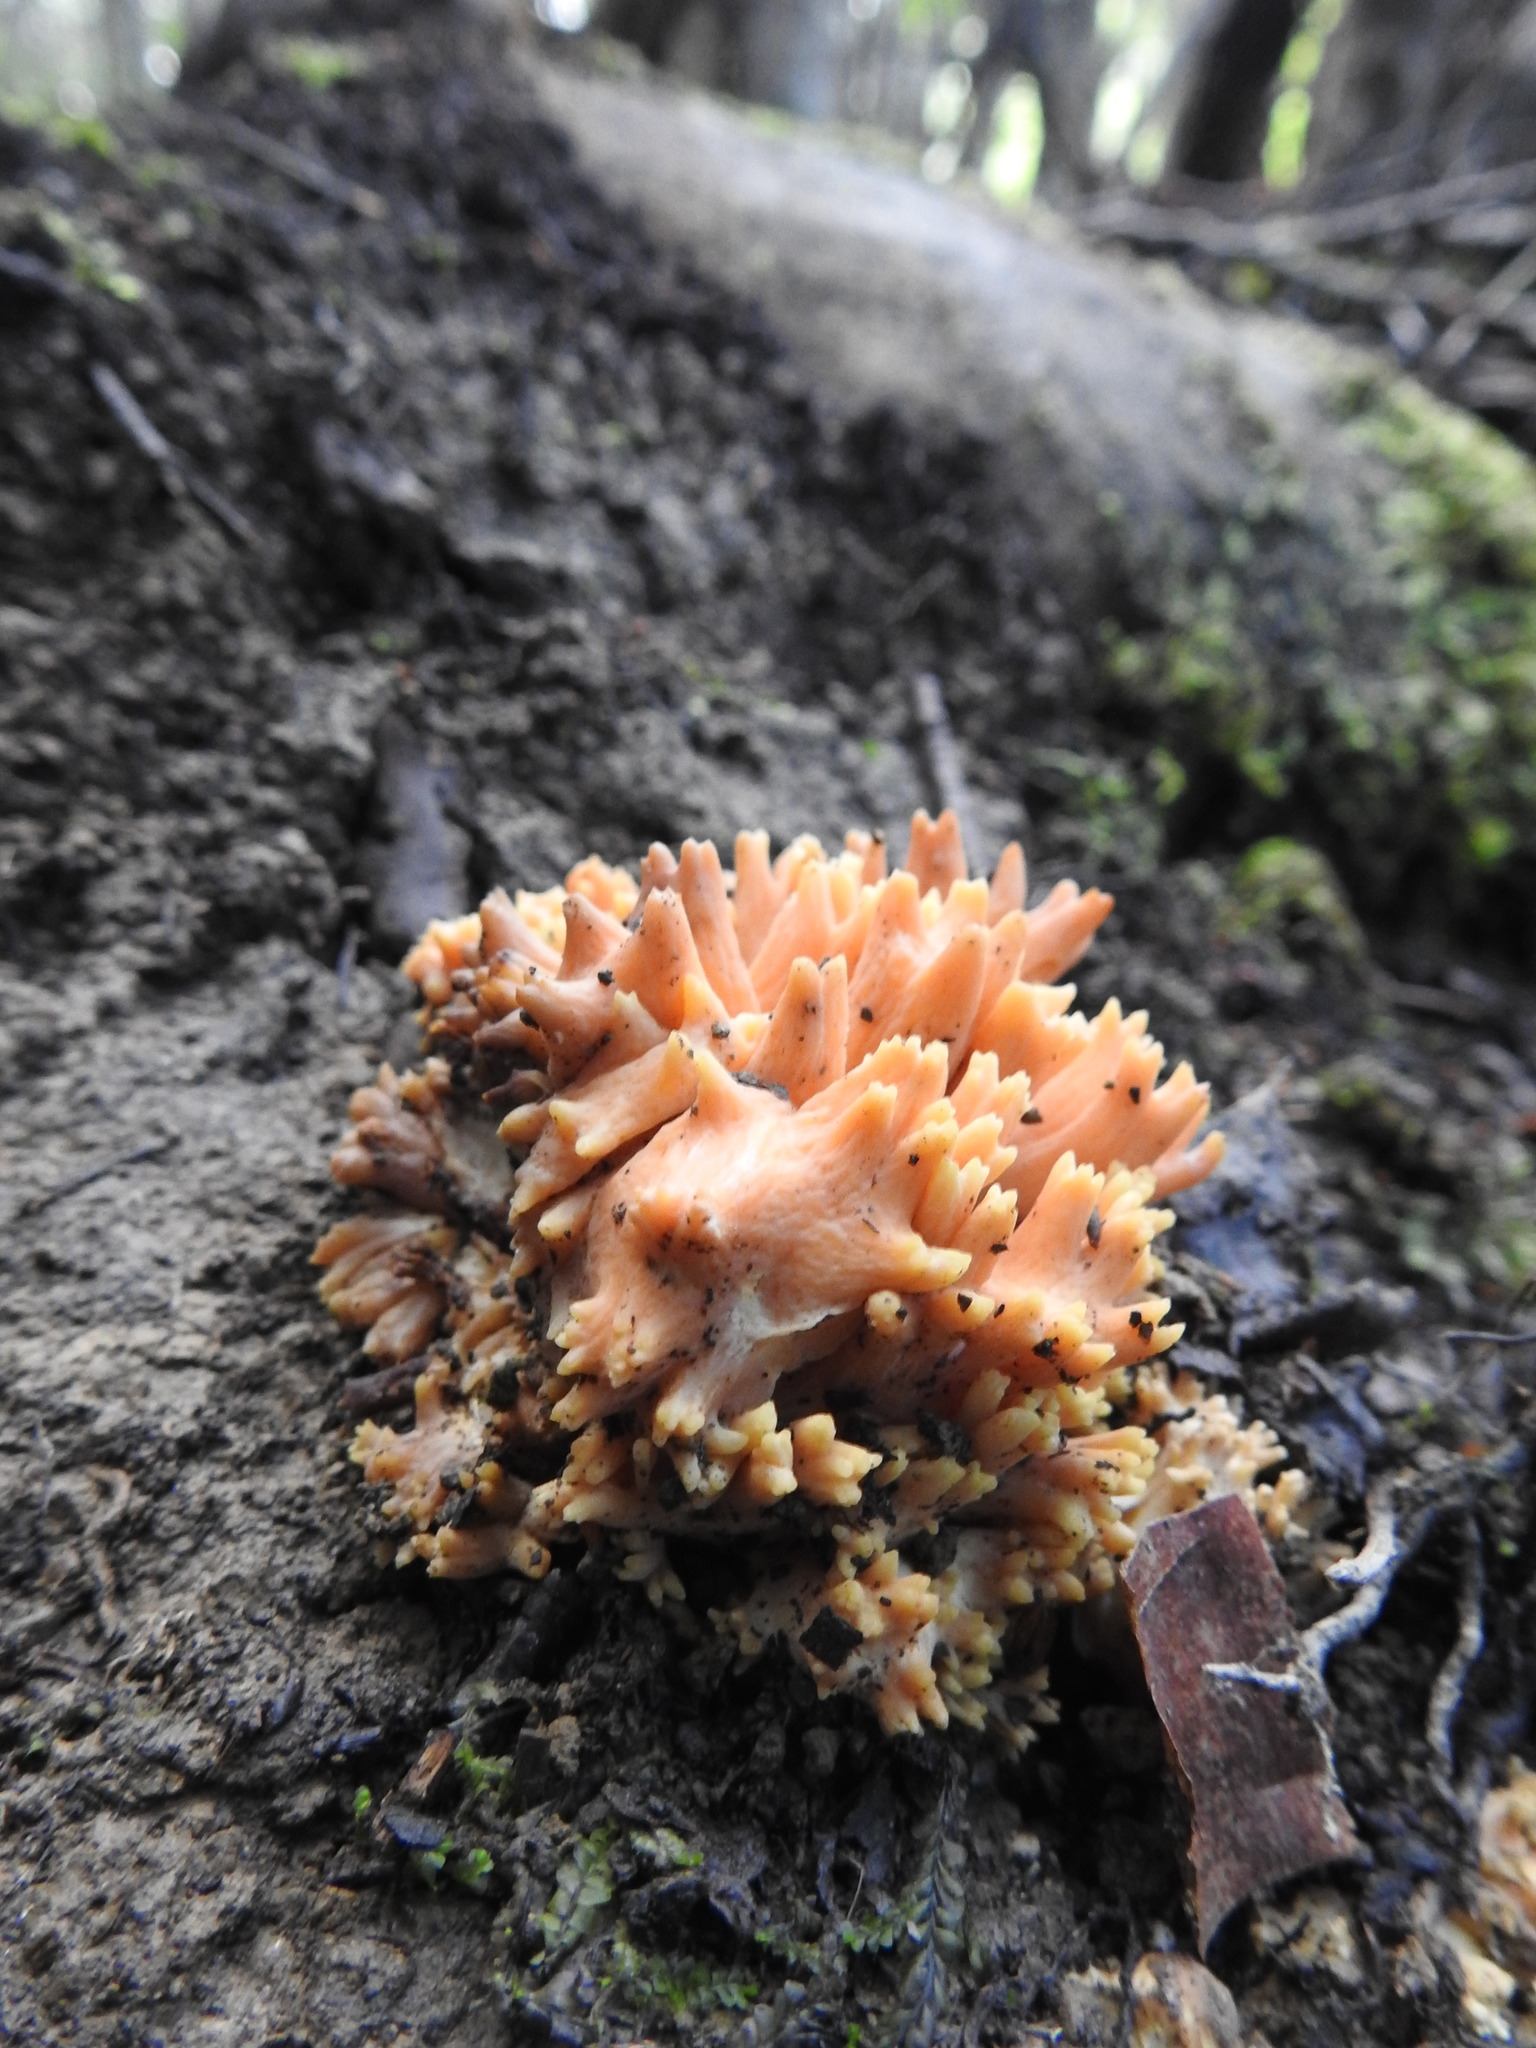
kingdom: Fungi
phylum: Basidiomycota
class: Agaricomycetes
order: Gomphales
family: Gomphaceae
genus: Ramaria
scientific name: Ramaria patagonica
